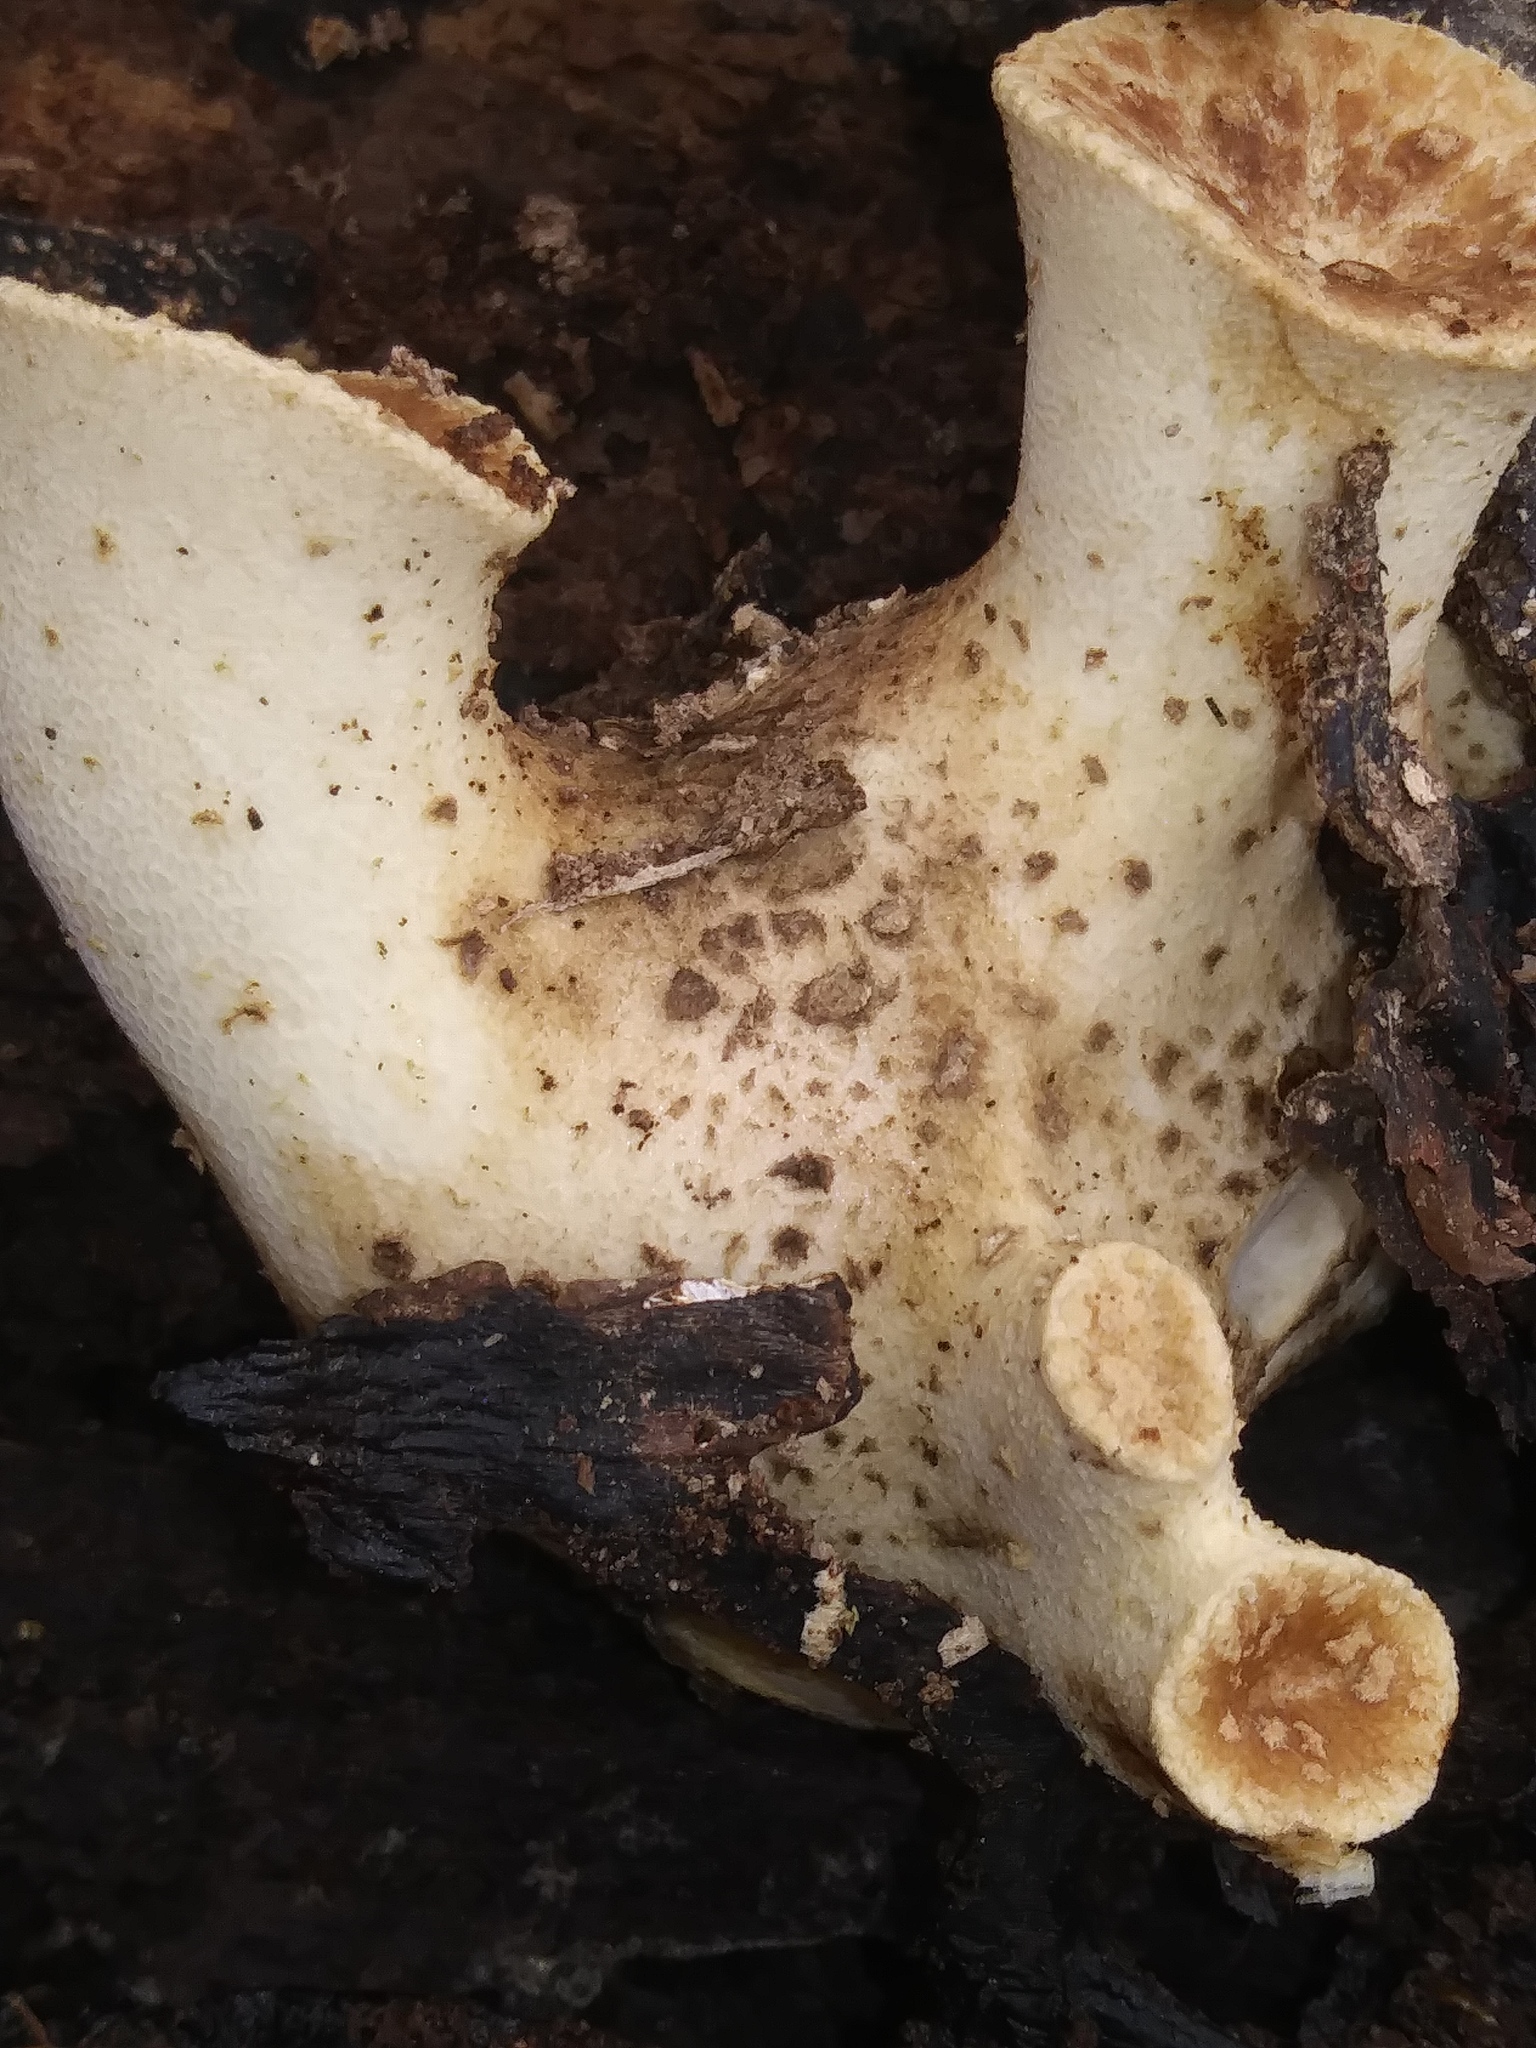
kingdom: Fungi
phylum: Basidiomycota
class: Agaricomycetes
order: Polyporales
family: Polyporaceae
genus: Cerioporus
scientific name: Cerioporus squamosus
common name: Dryad's saddle
